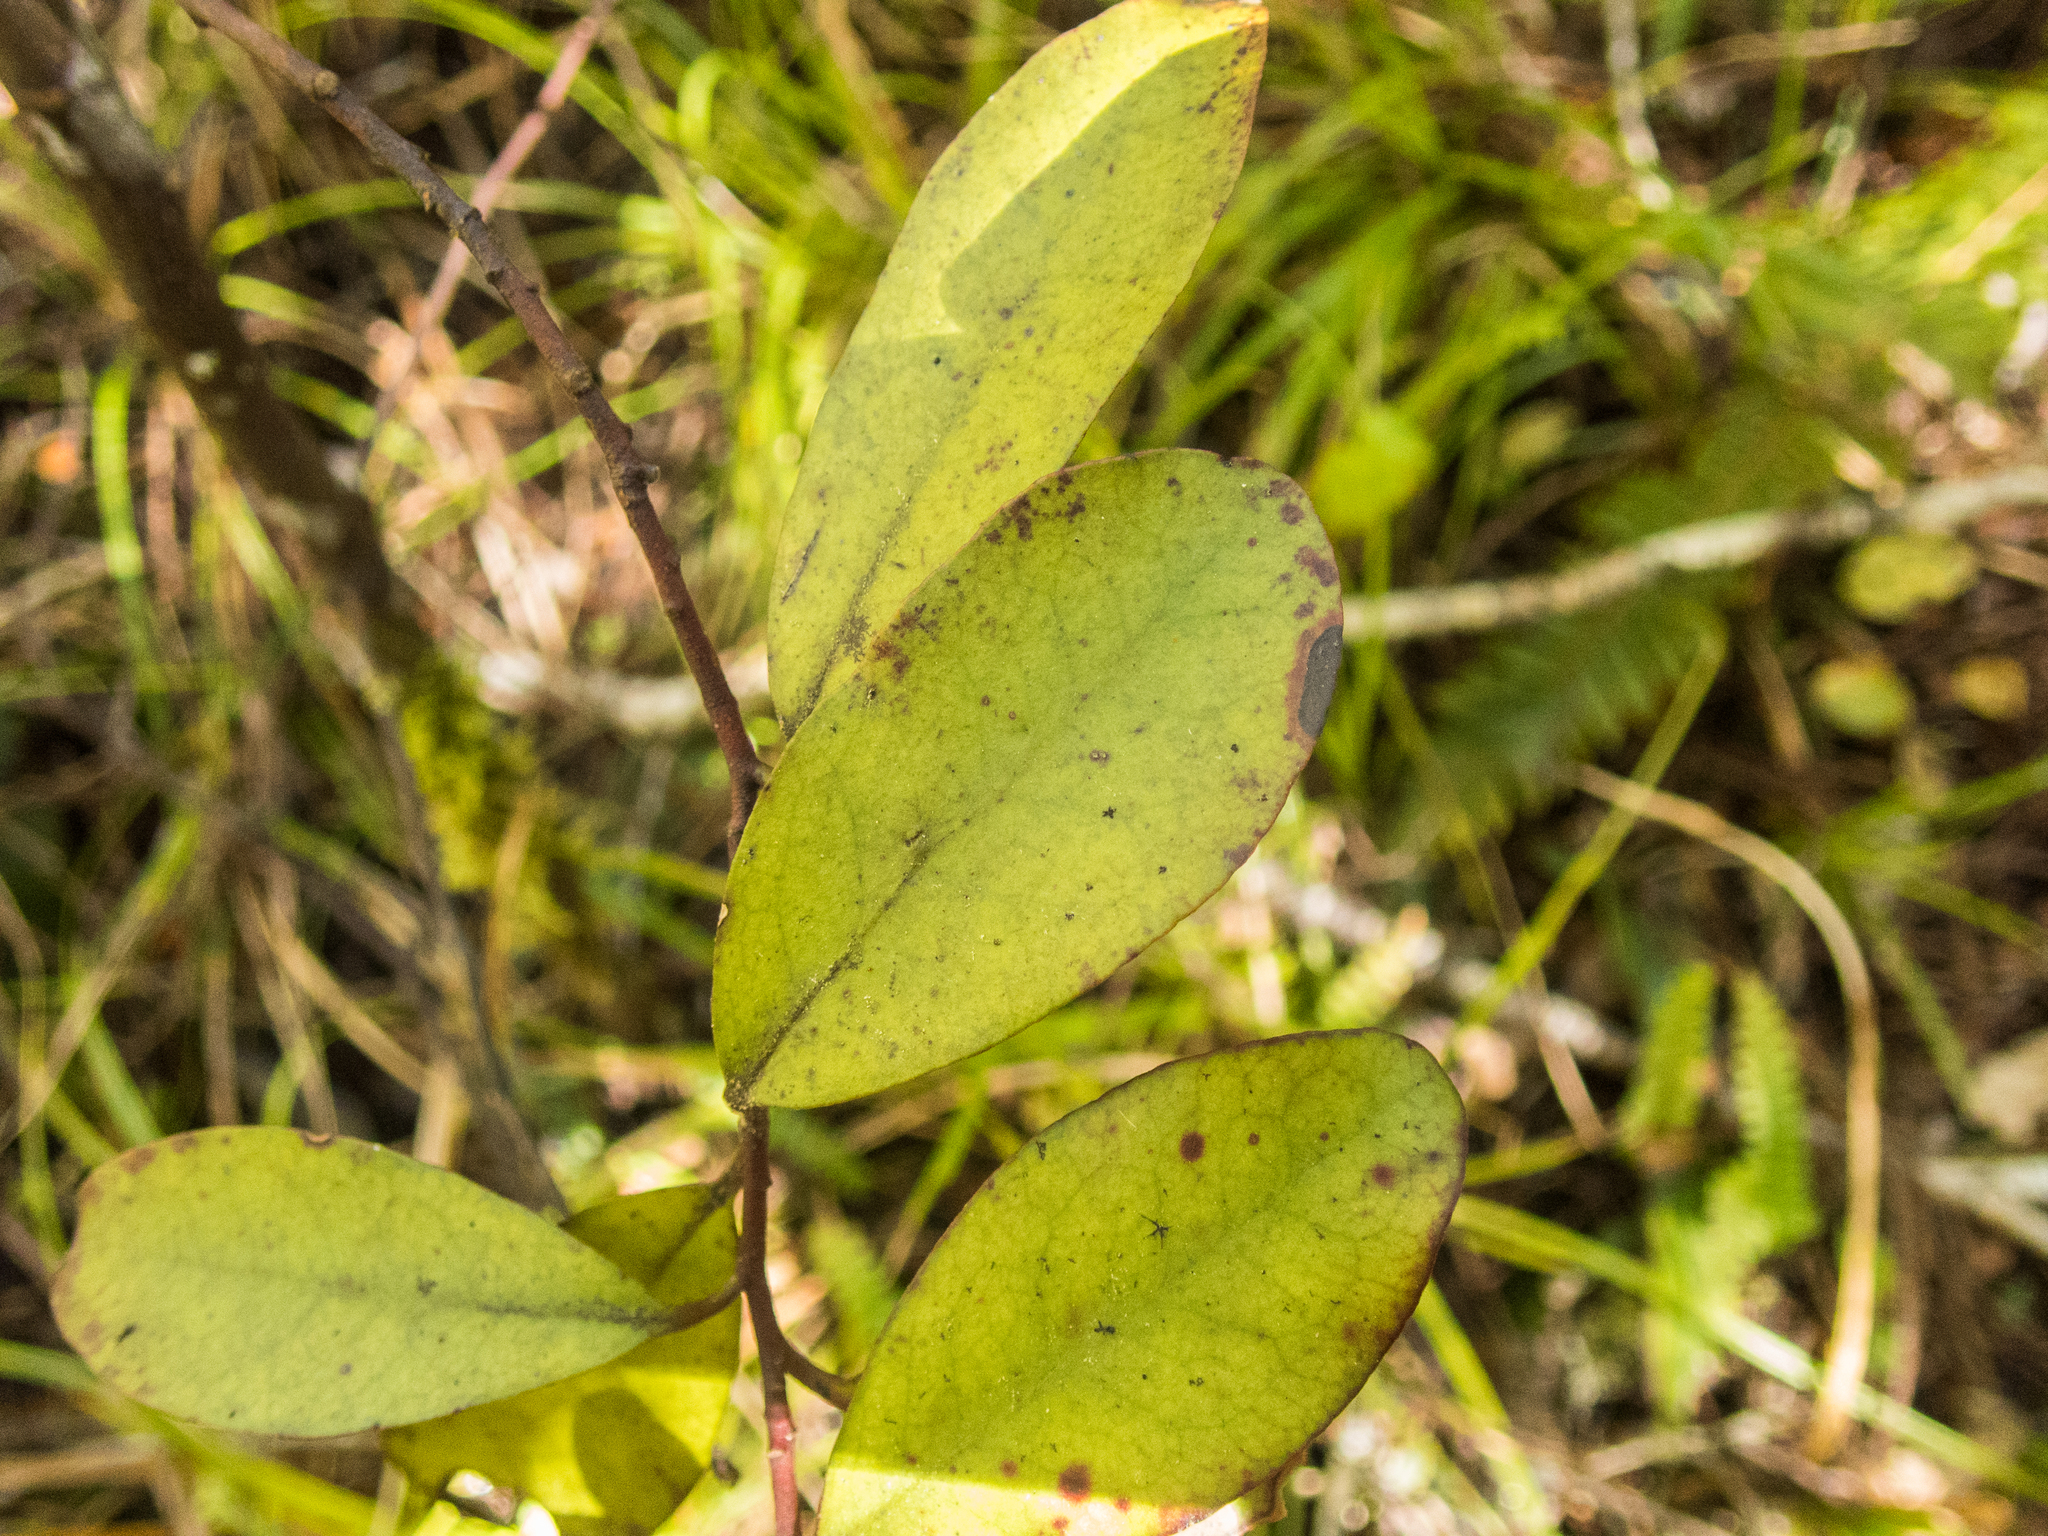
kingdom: Plantae
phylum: Tracheophyta
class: Magnoliopsida
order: Canellales
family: Winteraceae
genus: Pseudowintera
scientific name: Pseudowintera colorata
